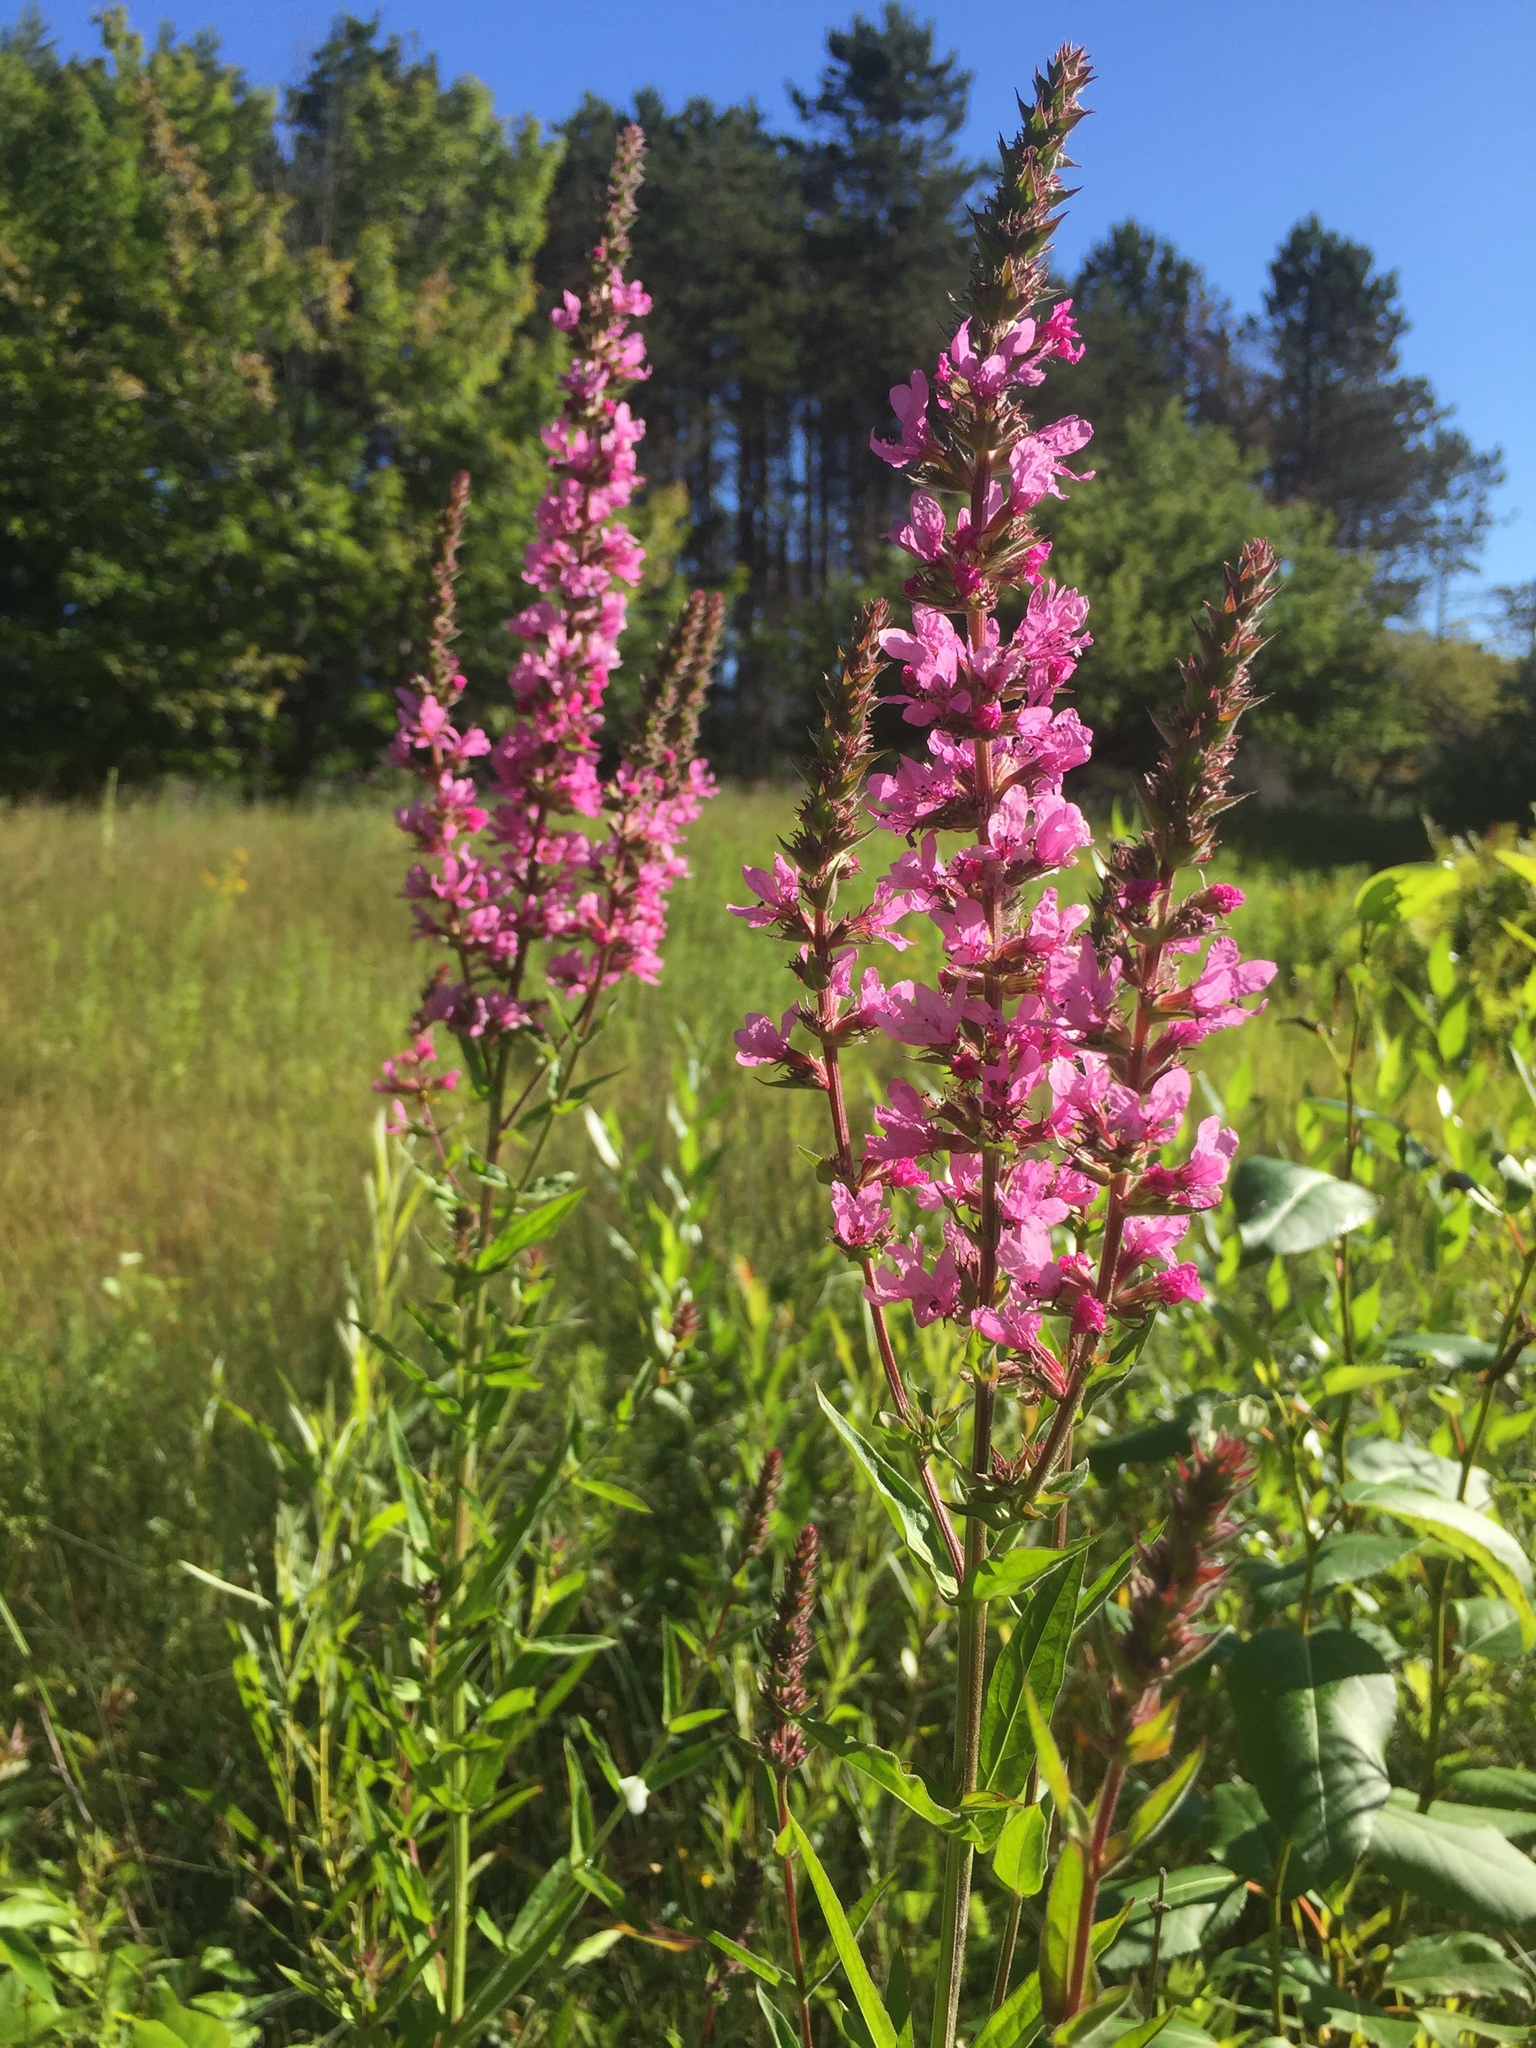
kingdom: Plantae
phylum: Tracheophyta
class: Magnoliopsida
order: Myrtales
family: Lythraceae
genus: Lythrum
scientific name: Lythrum salicaria
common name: Purple loosestrife
